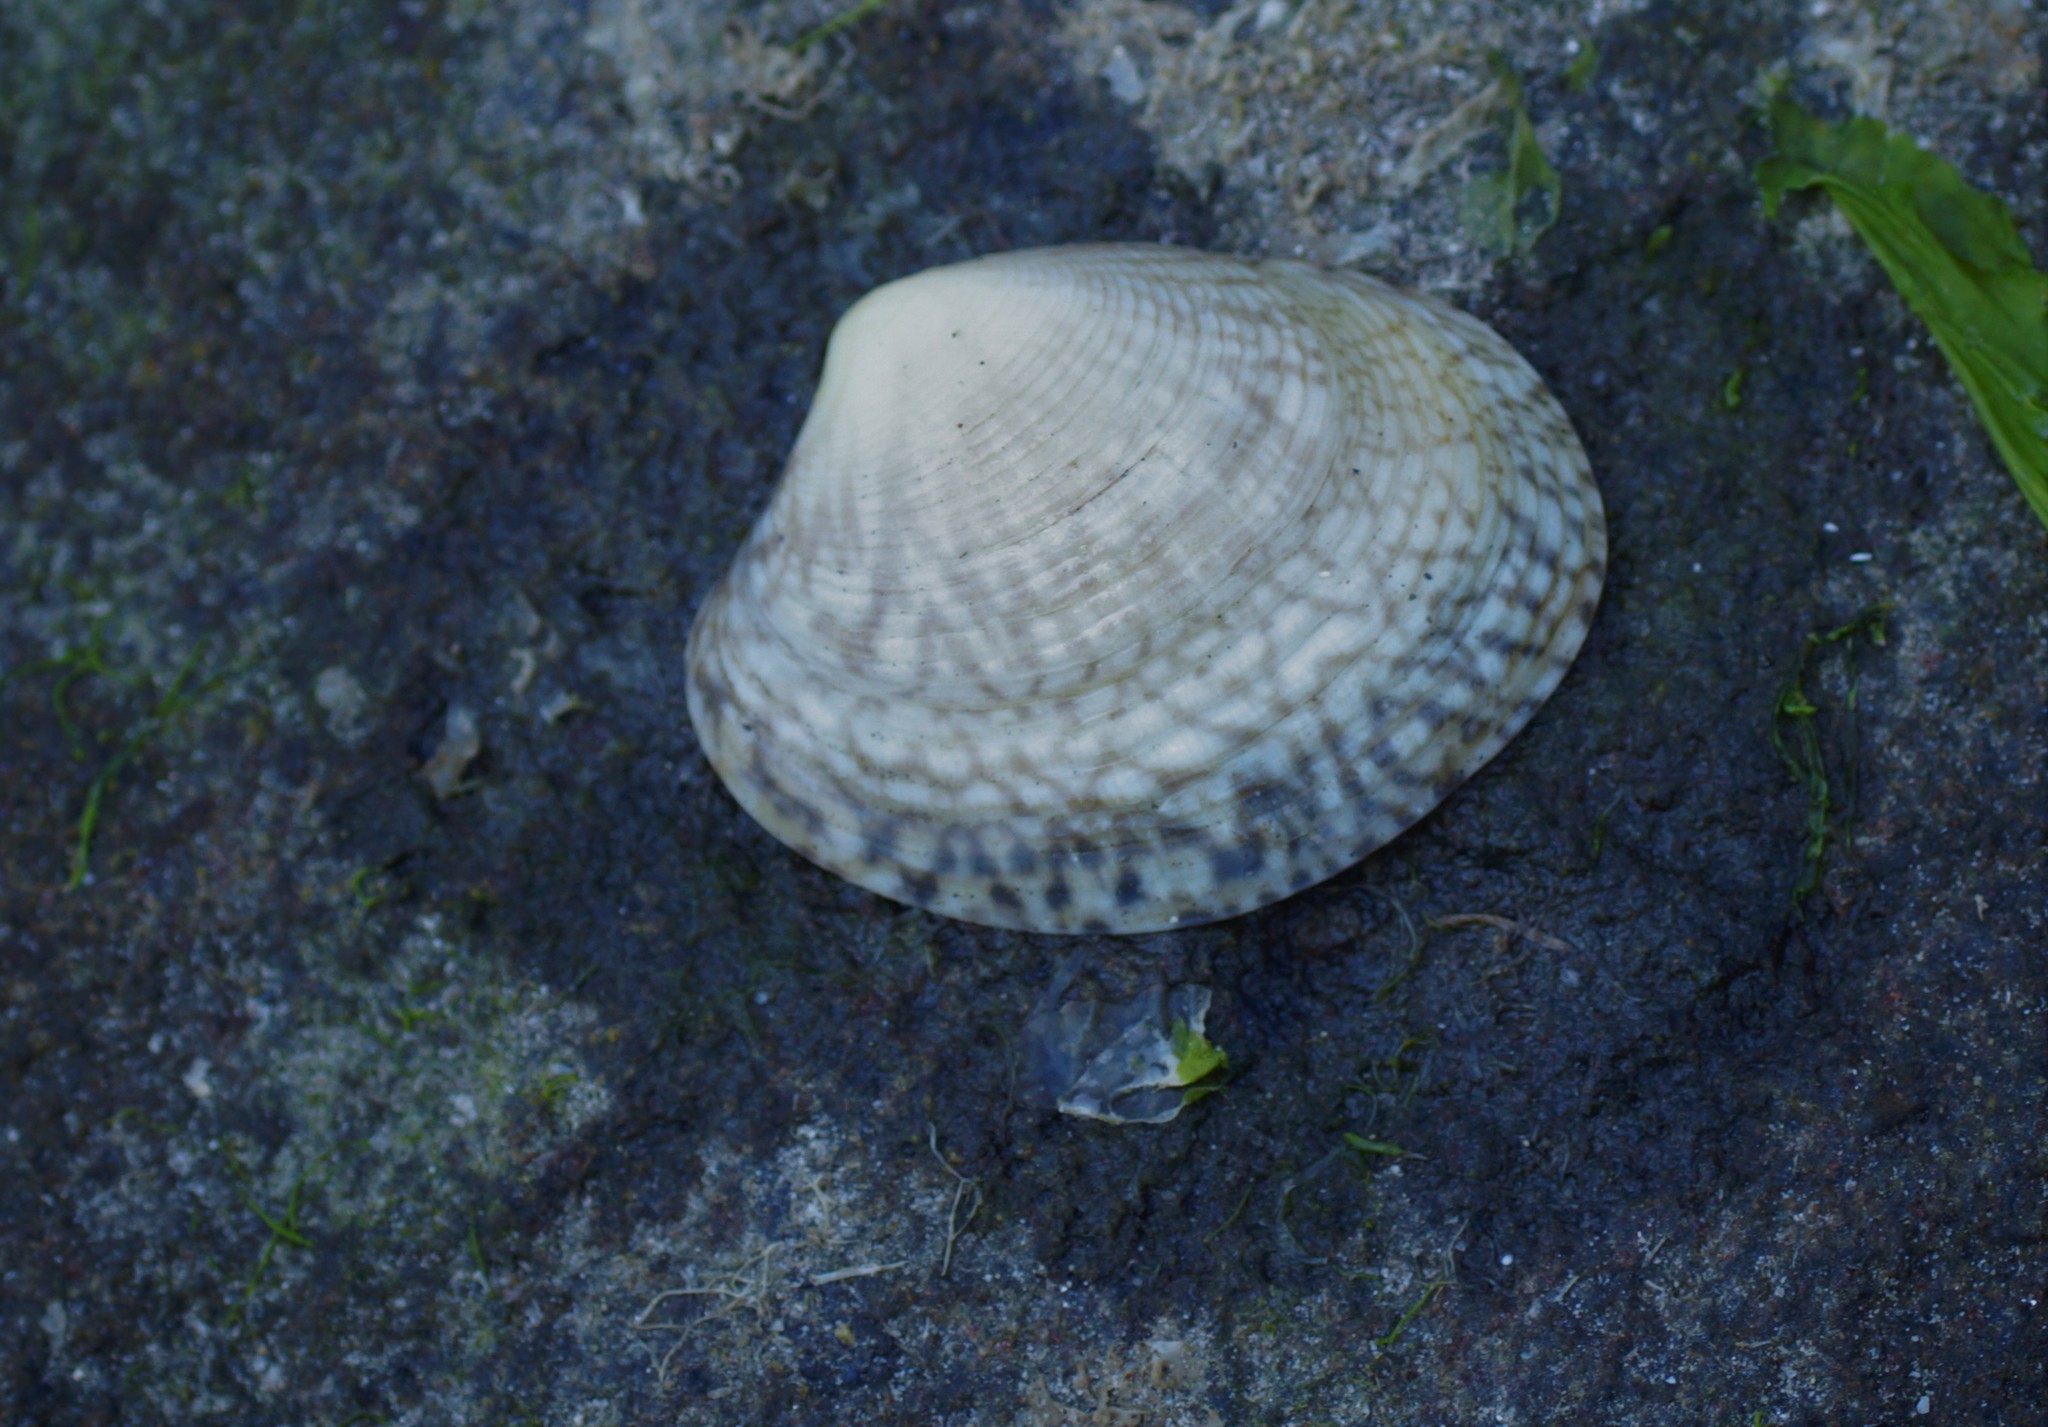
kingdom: Animalia
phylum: Mollusca
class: Bivalvia
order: Venerida
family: Veneridae
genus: Katelysia
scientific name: Katelysia rhytiphora
